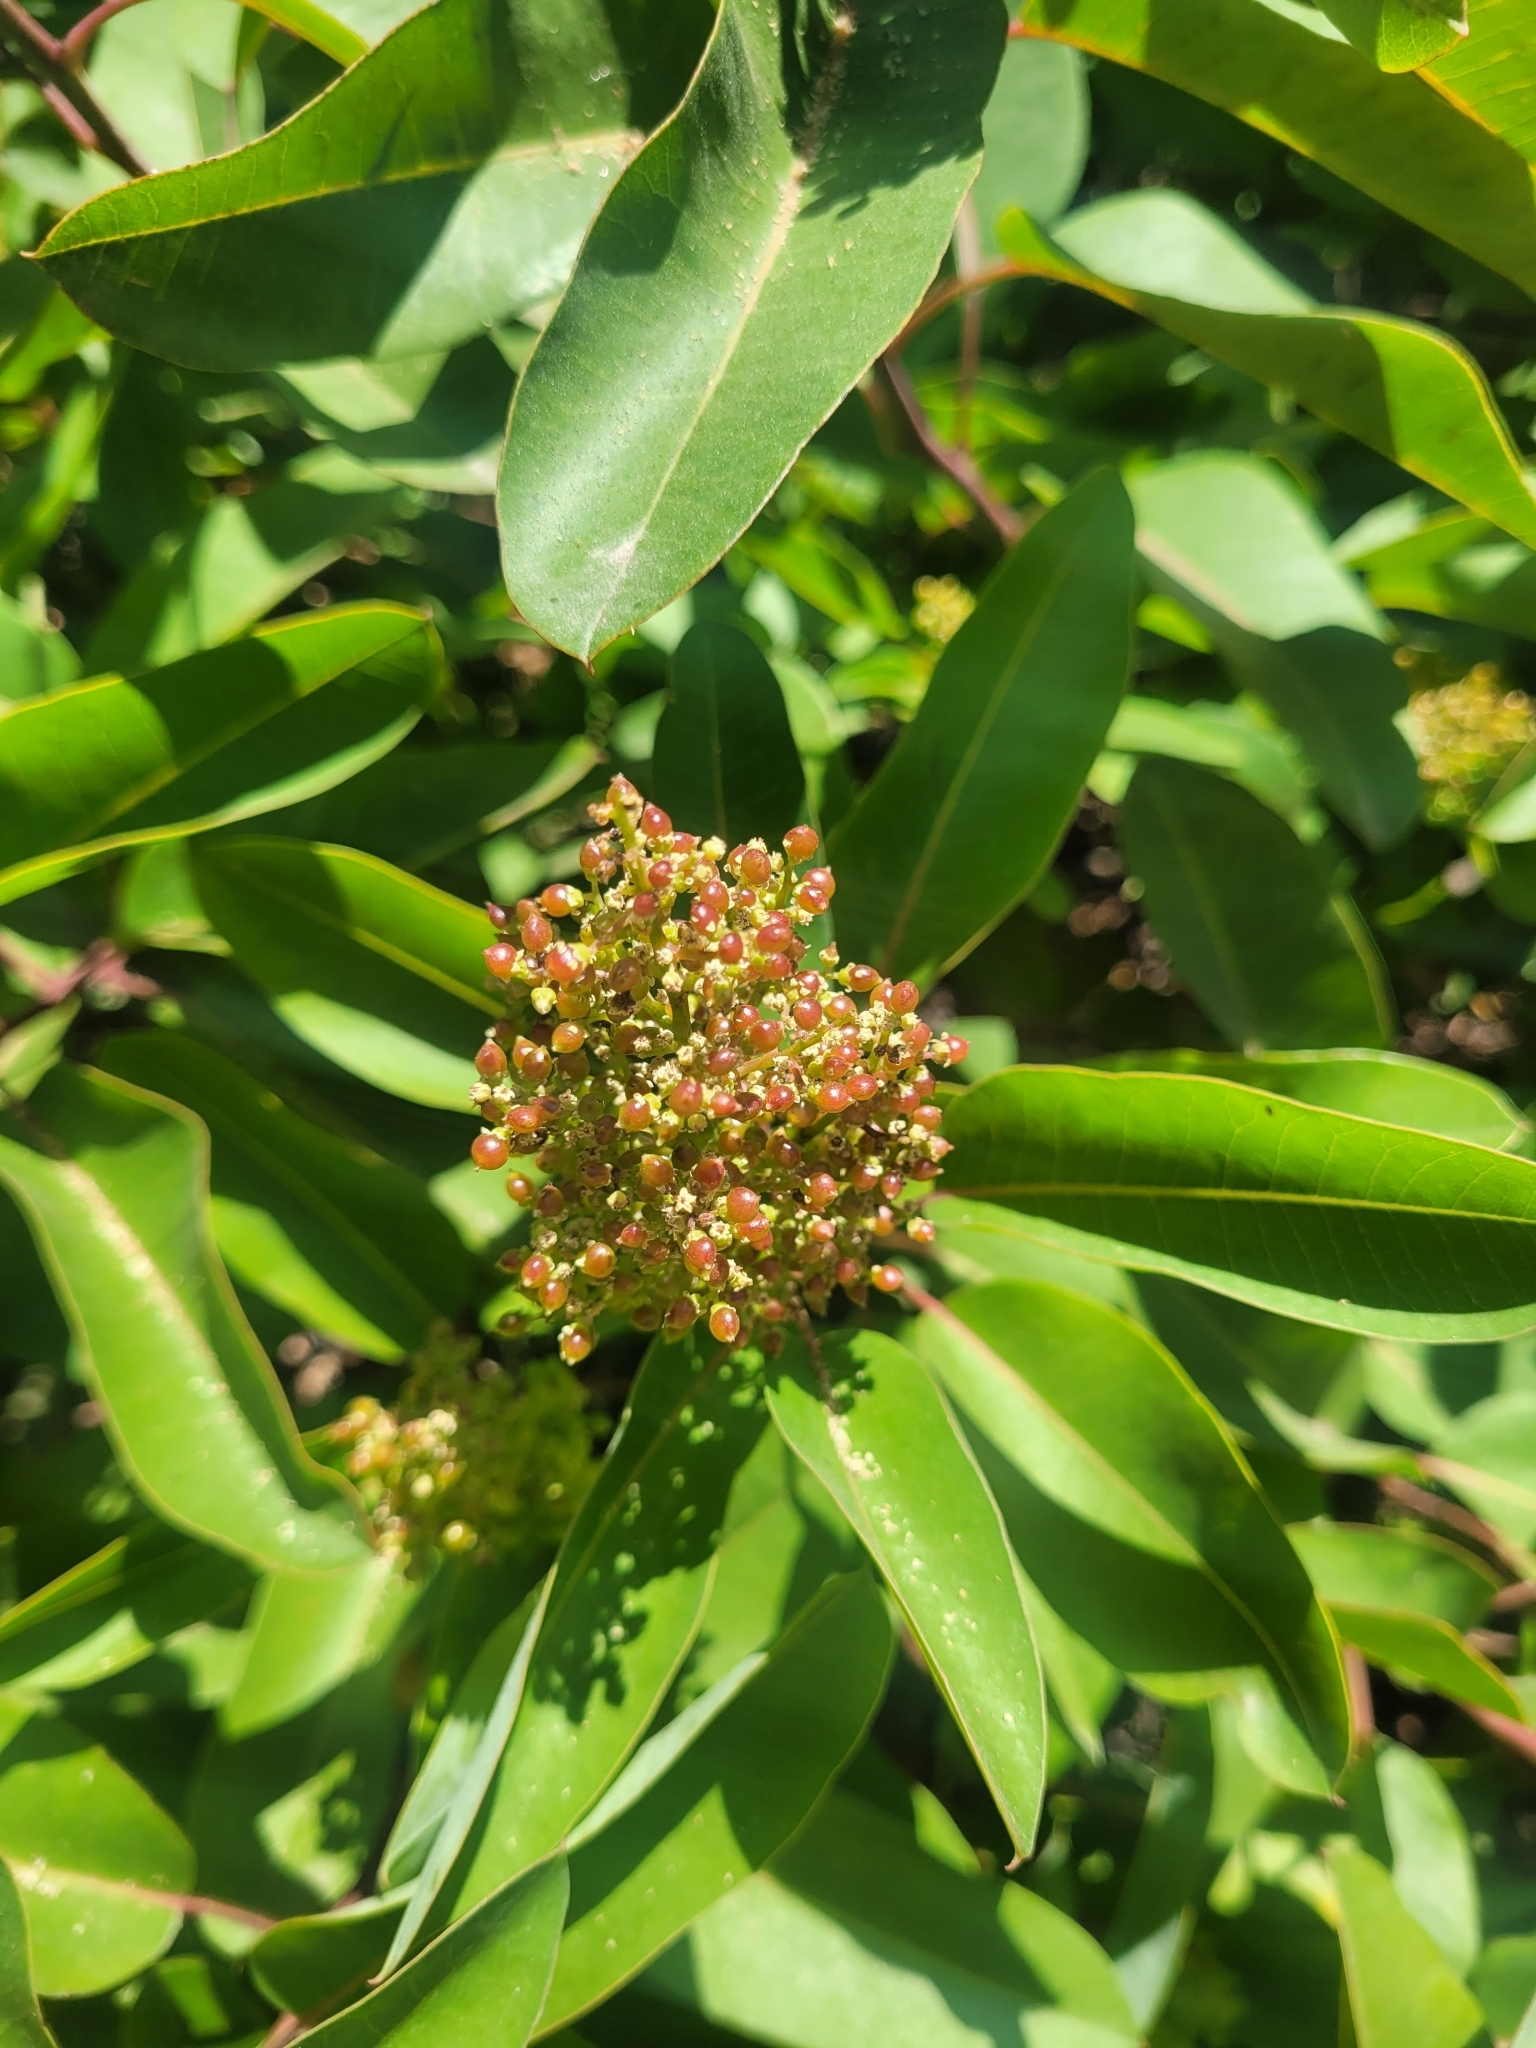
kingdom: Plantae
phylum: Tracheophyta
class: Magnoliopsida
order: Sapindales
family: Anacardiaceae
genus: Malosma
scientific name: Malosma laurina
